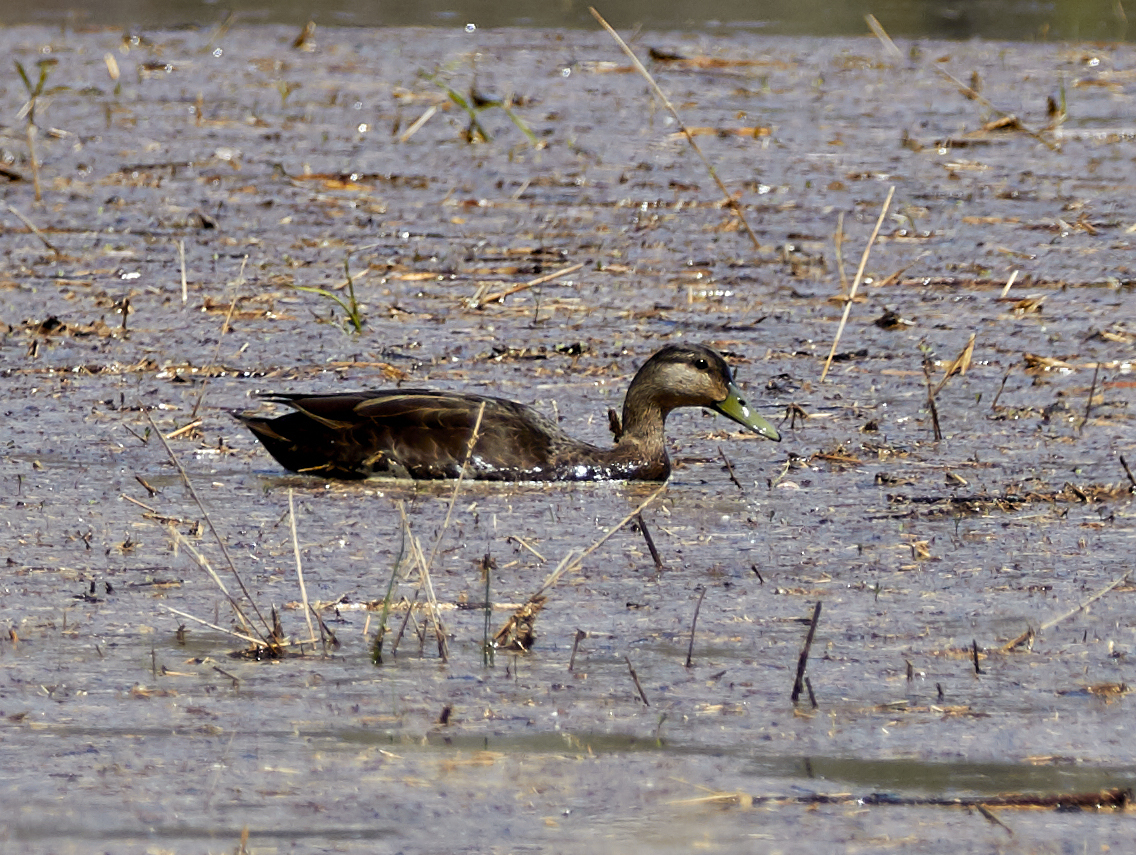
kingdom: Animalia
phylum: Chordata
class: Aves
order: Anseriformes
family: Anatidae
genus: Anas
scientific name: Anas rubripes
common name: American black duck
